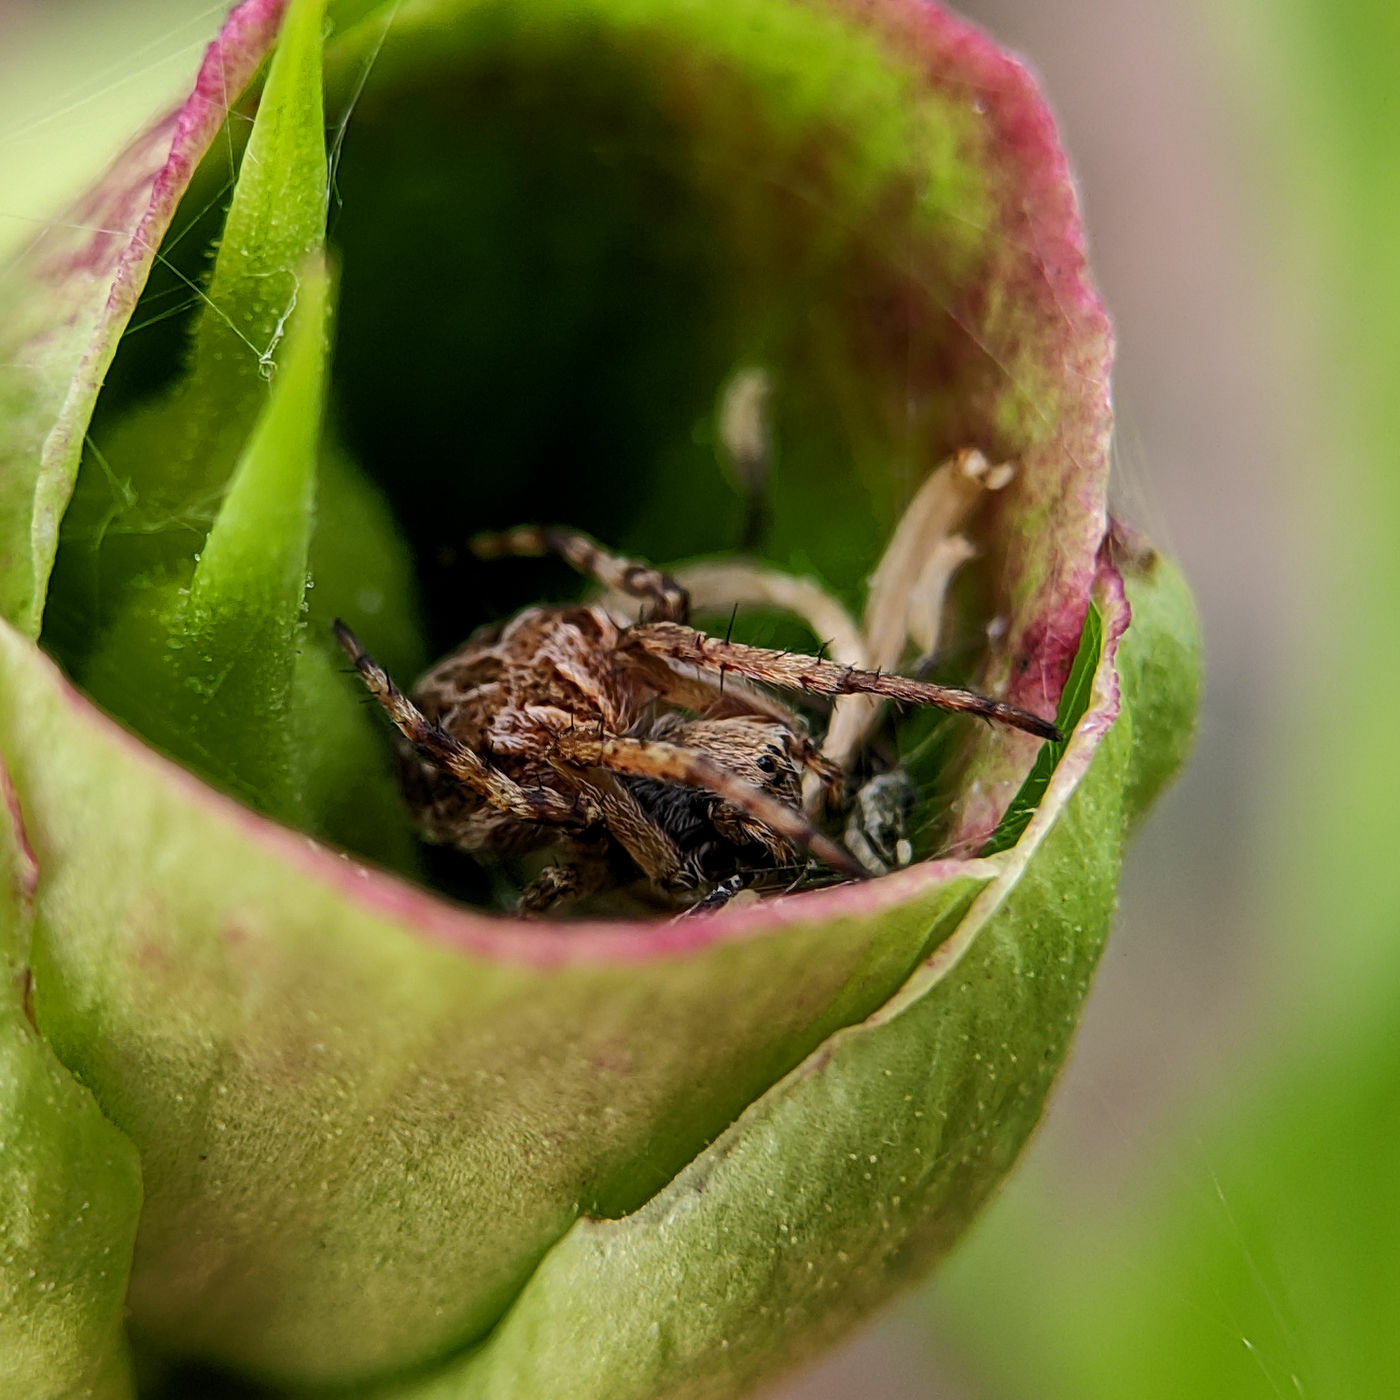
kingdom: Animalia
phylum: Arthropoda
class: Arachnida
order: Araneae
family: Araneidae
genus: Agalenatea
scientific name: Agalenatea redii
